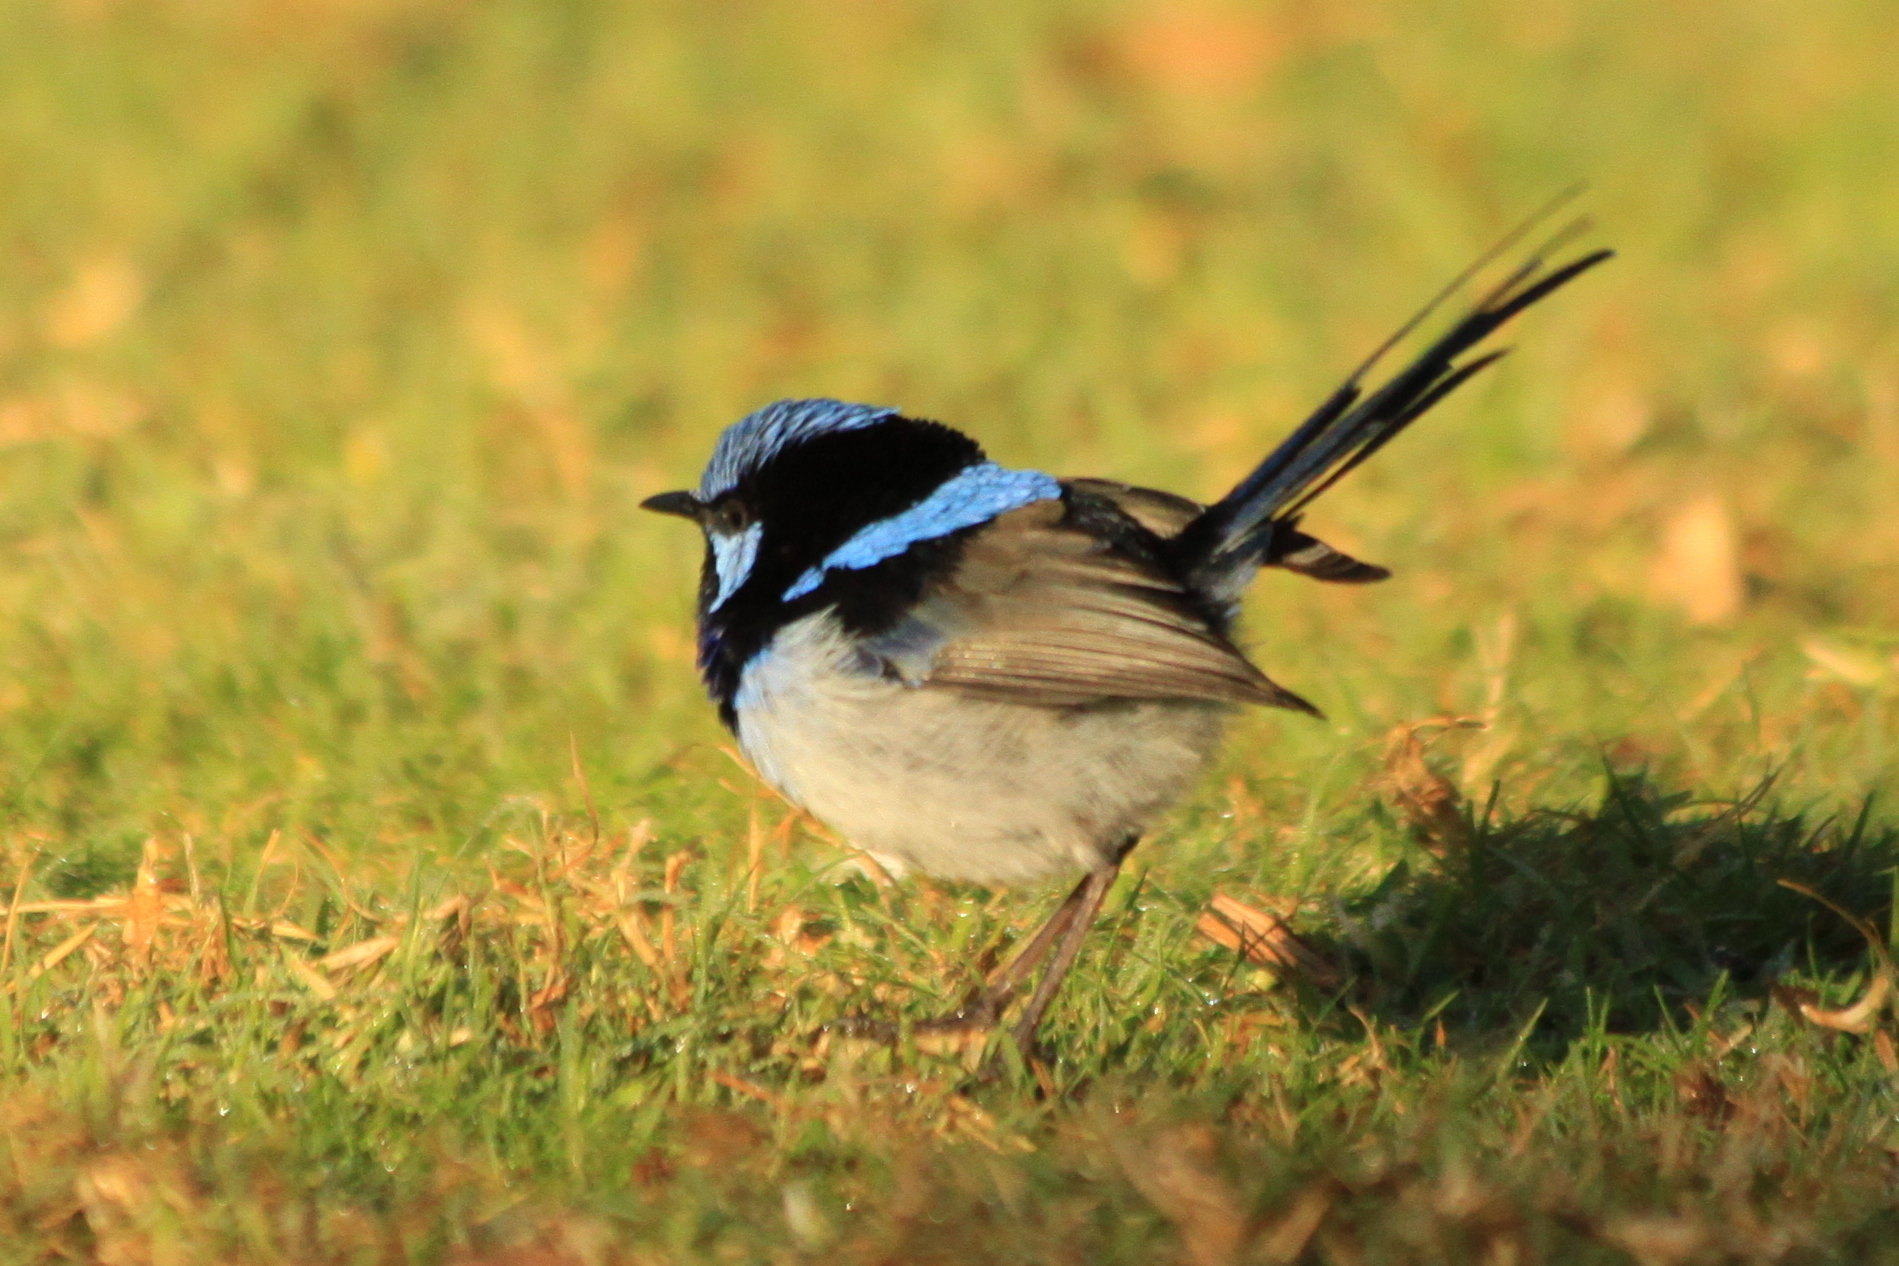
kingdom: Animalia
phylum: Chordata
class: Aves
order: Passeriformes
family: Maluridae
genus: Malurus
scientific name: Malurus cyaneus
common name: Superb fairywren
